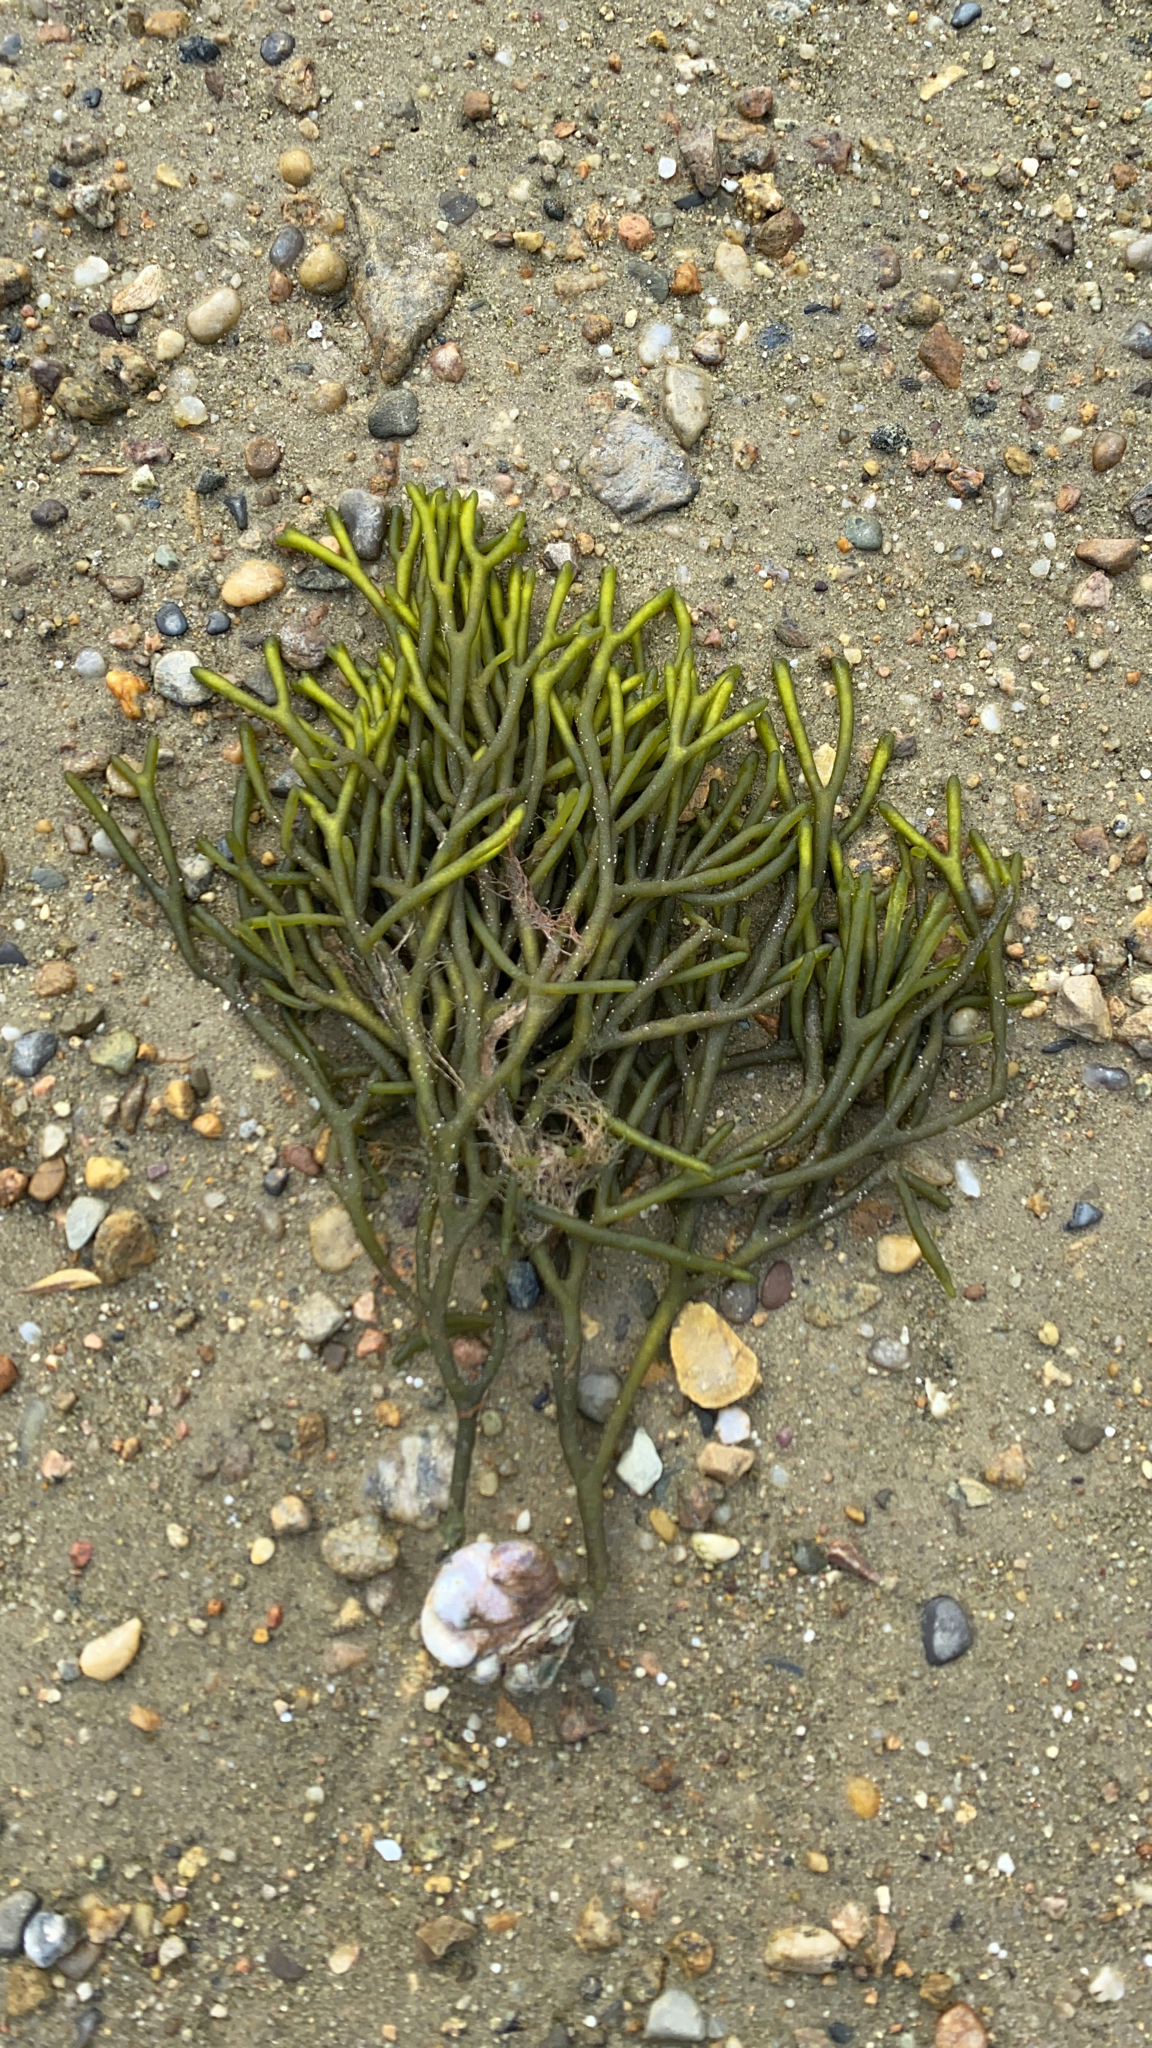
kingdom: Plantae
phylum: Chlorophyta
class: Ulvophyceae
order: Bryopsidales
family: Codiaceae
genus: Codium
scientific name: Codium fragile
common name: Dead man's fingers
